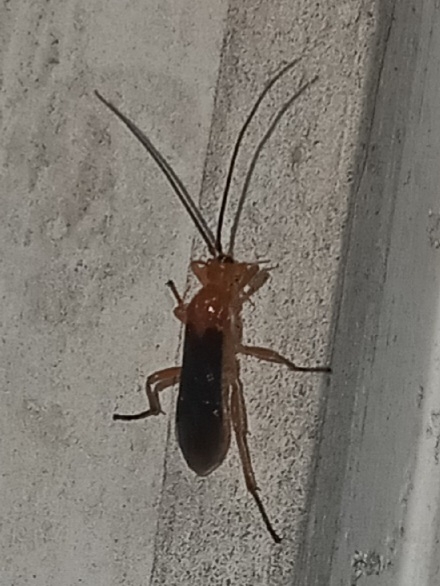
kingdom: Animalia
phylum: Arthropoda
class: Insecta
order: Hymenoptera
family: Braconidae
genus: Aleiodes
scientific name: Aleiodes politiceps
